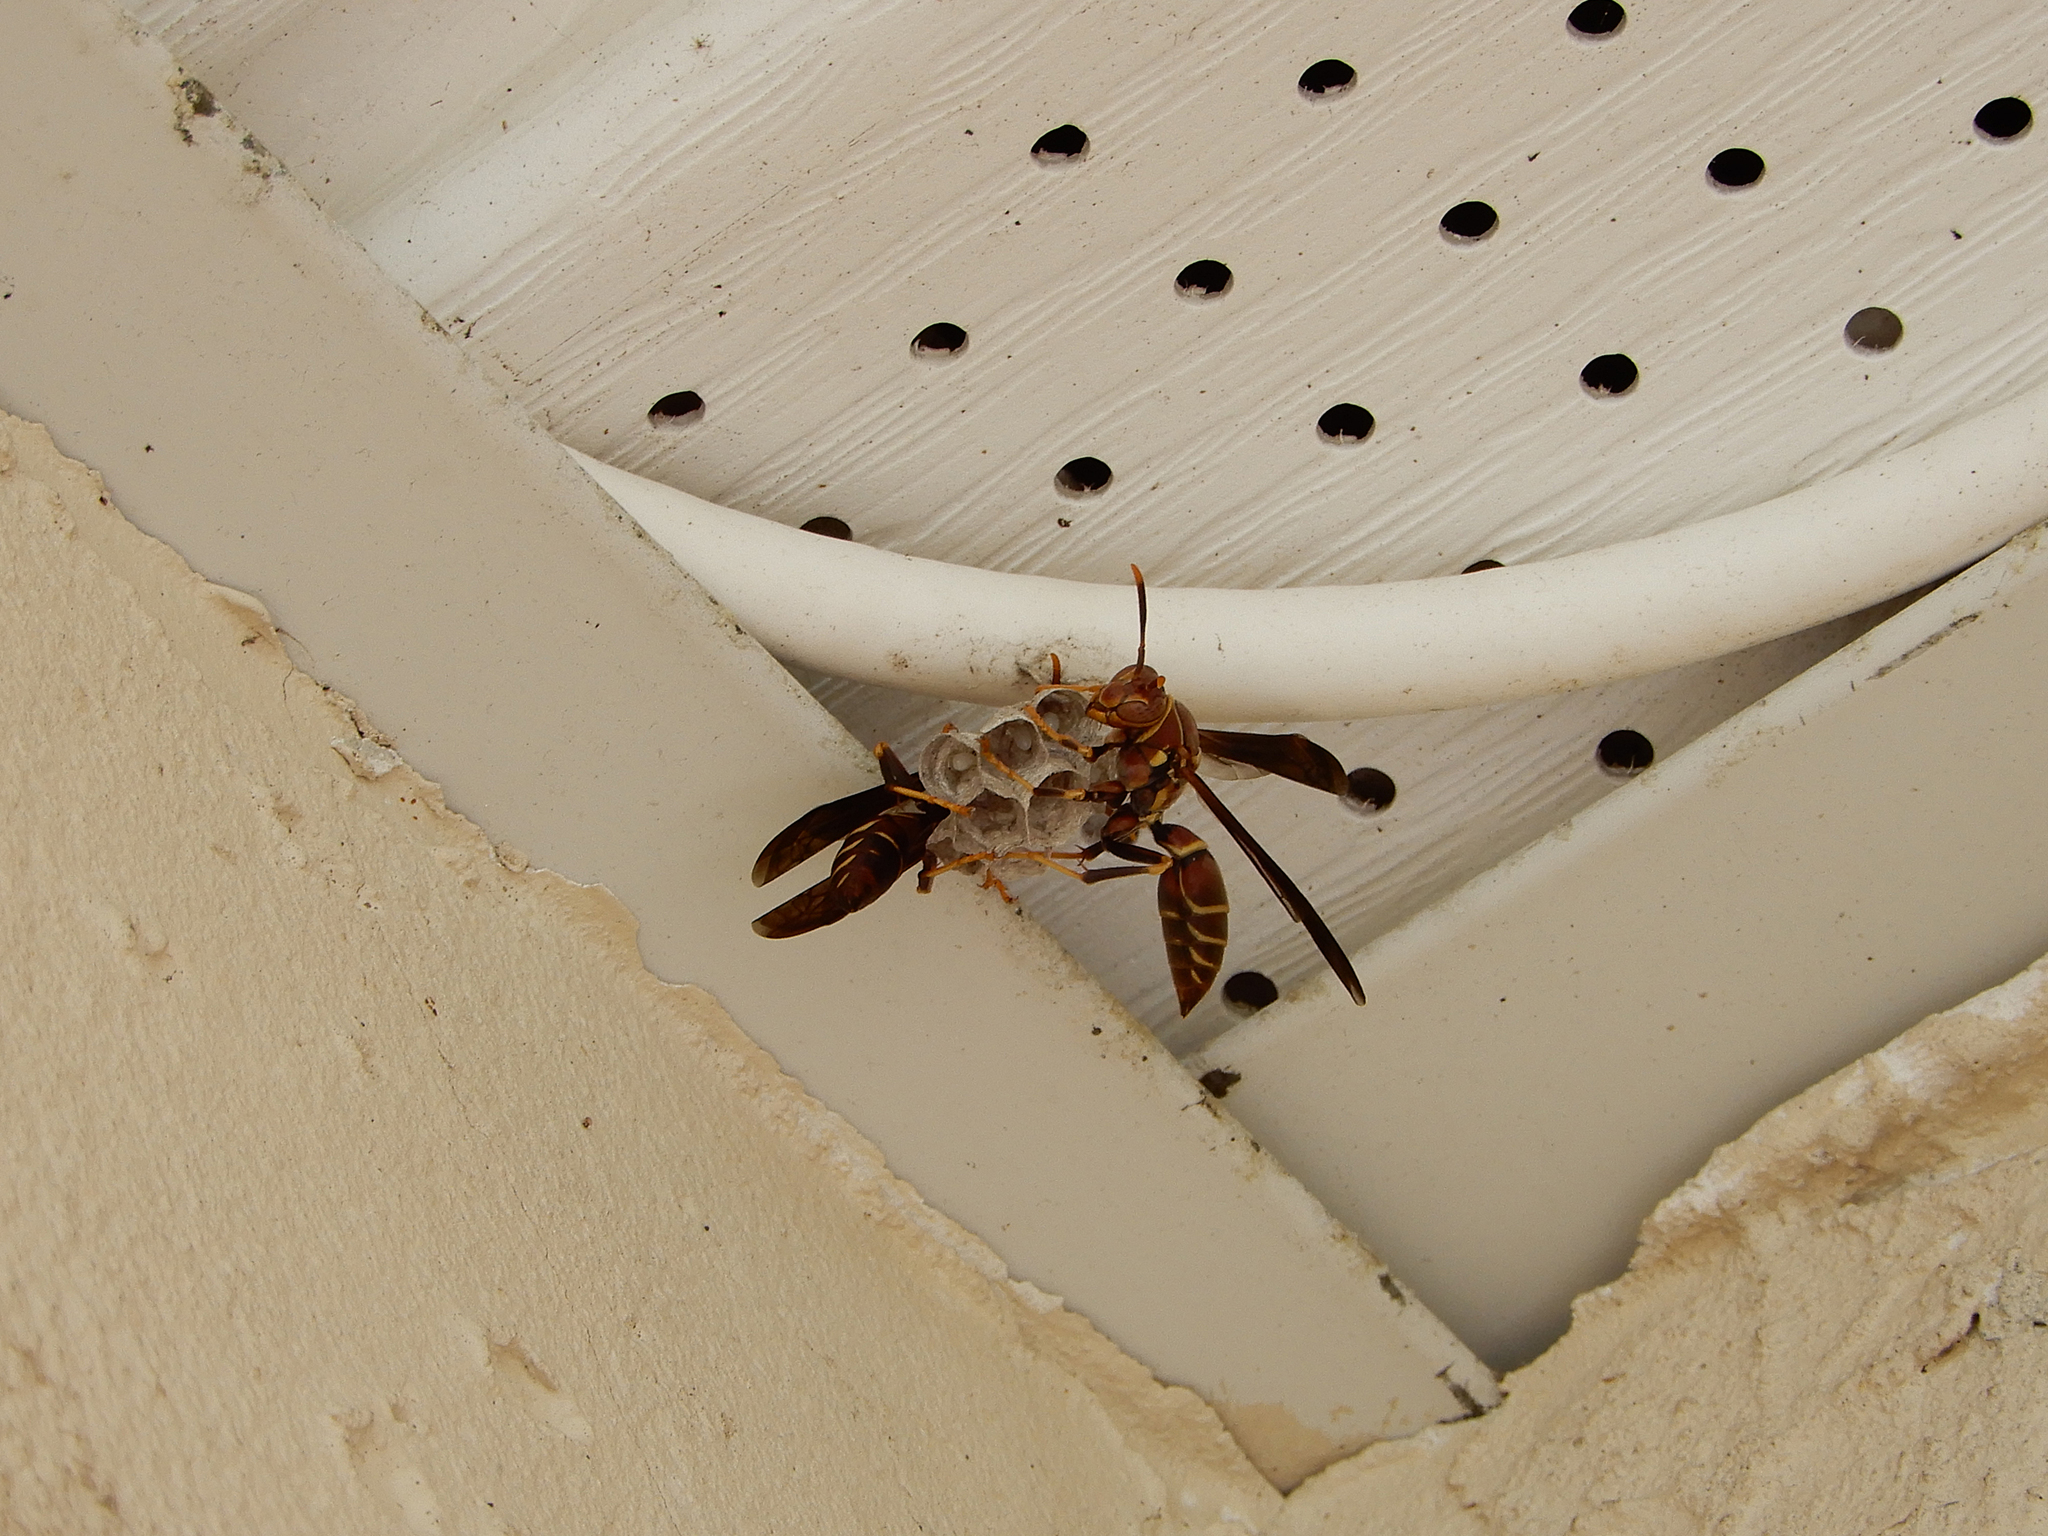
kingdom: Animalia
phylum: Arthropoda
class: Insecta
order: Hymenoptera
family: Eumenidae
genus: Polistes
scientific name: Polistes exclamans
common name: Paper wasp
